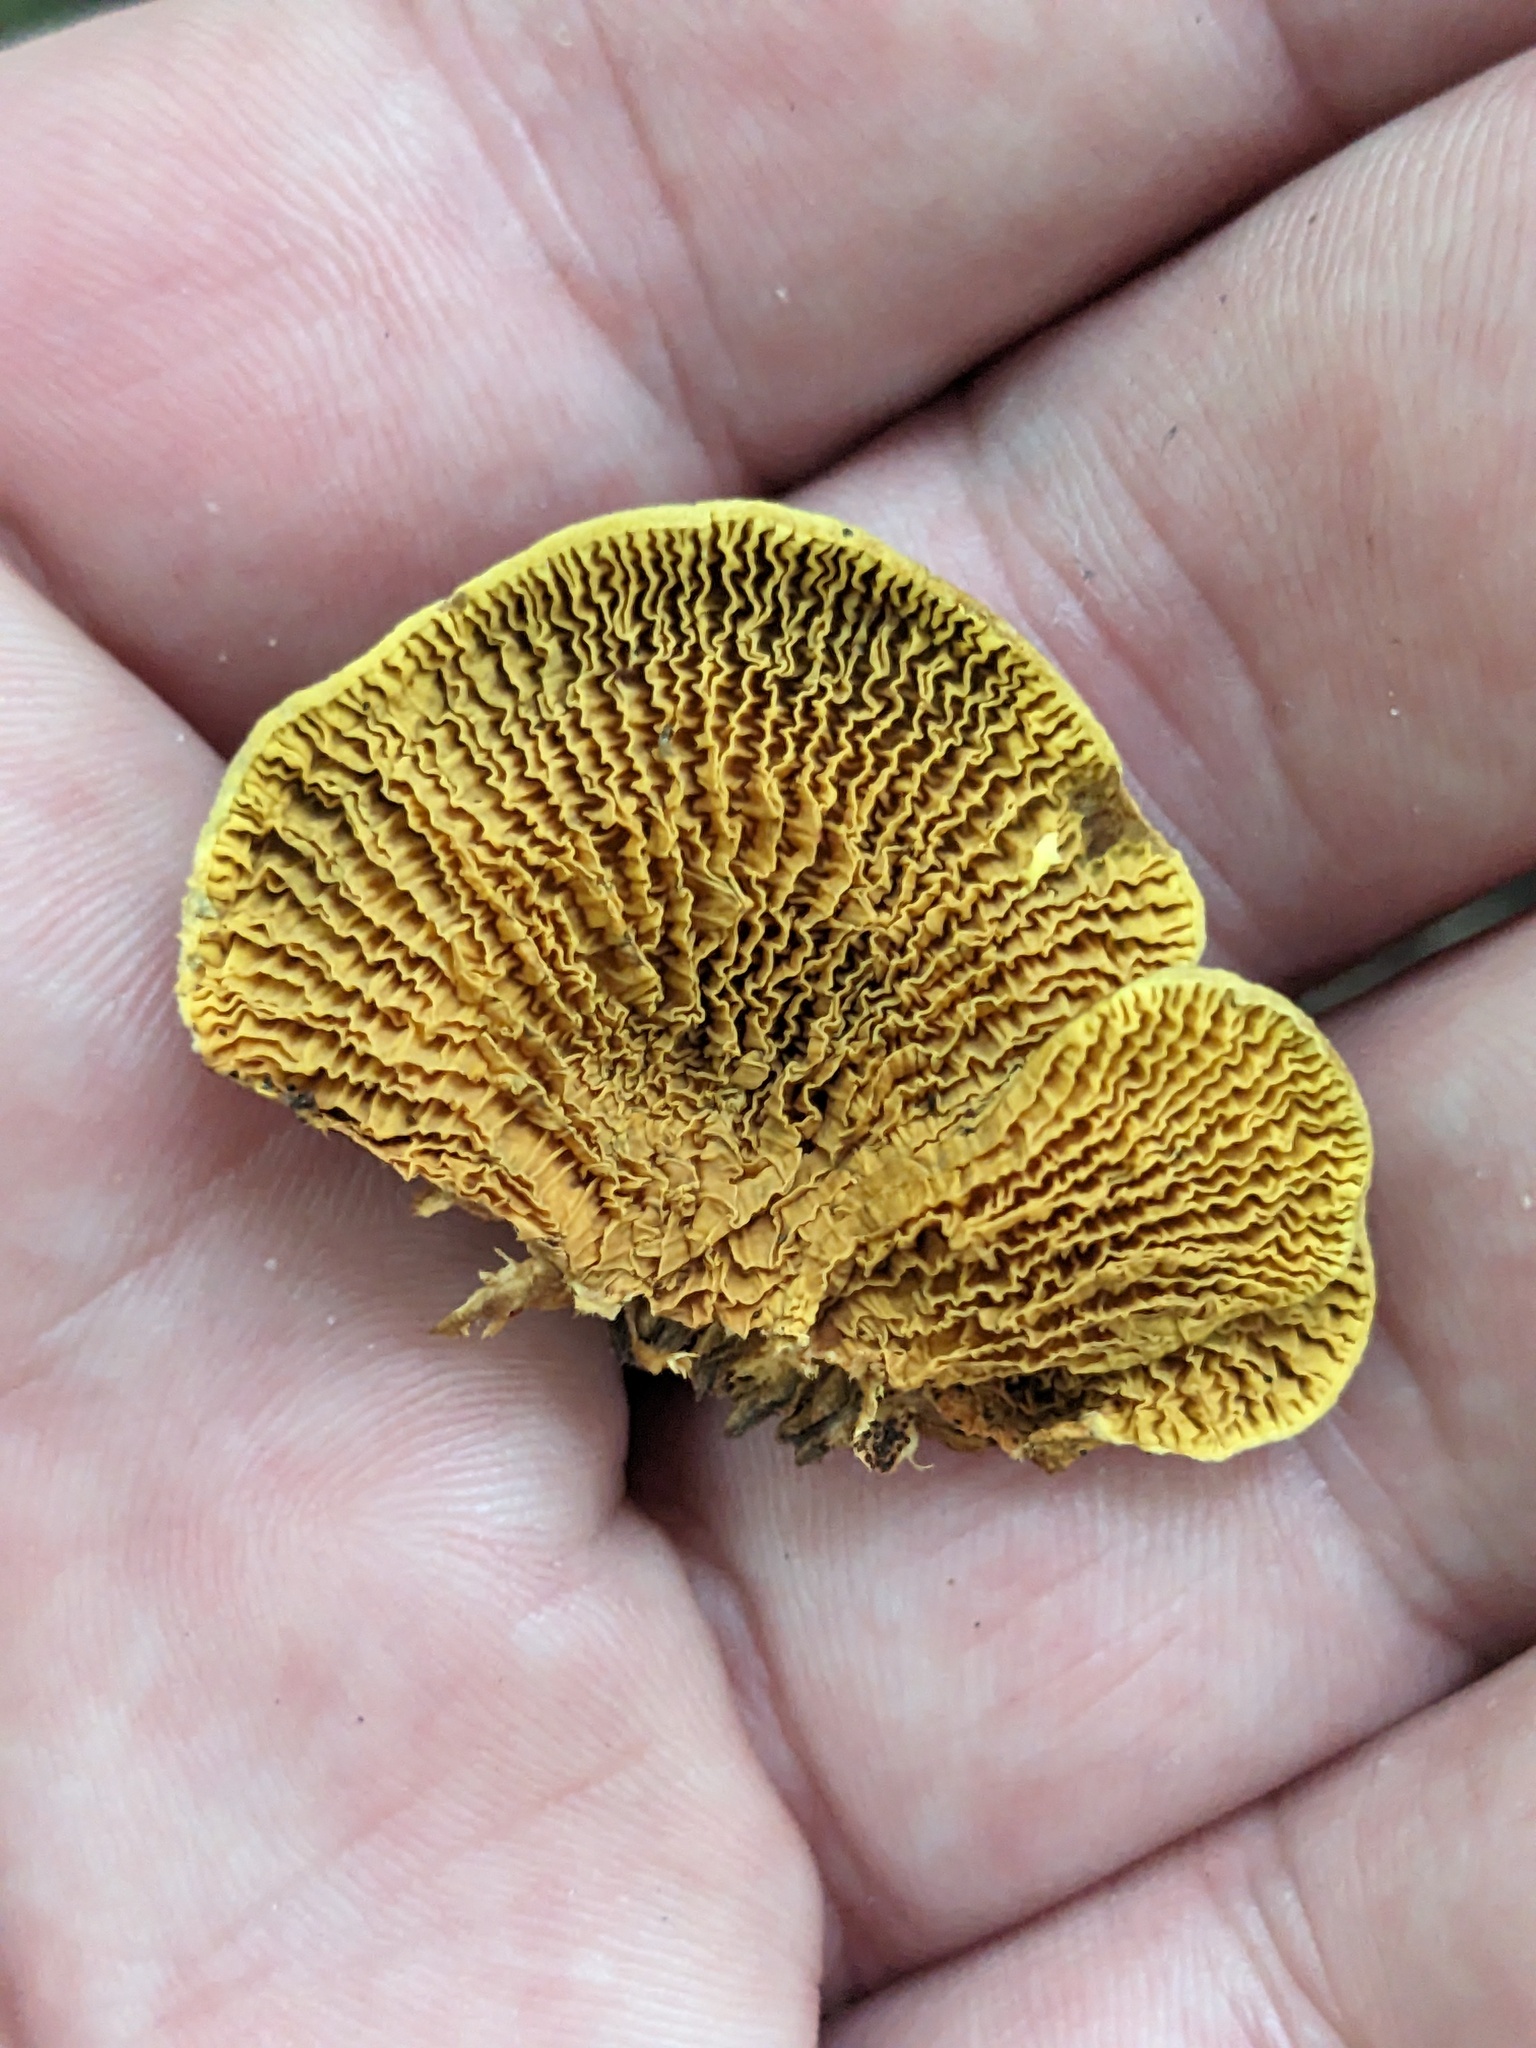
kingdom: Fungi
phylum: Basidiomycota
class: Agaricomycetes
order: Boletales
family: Paxillaceae
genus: Meiorganum
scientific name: Meiorganum curtisii
